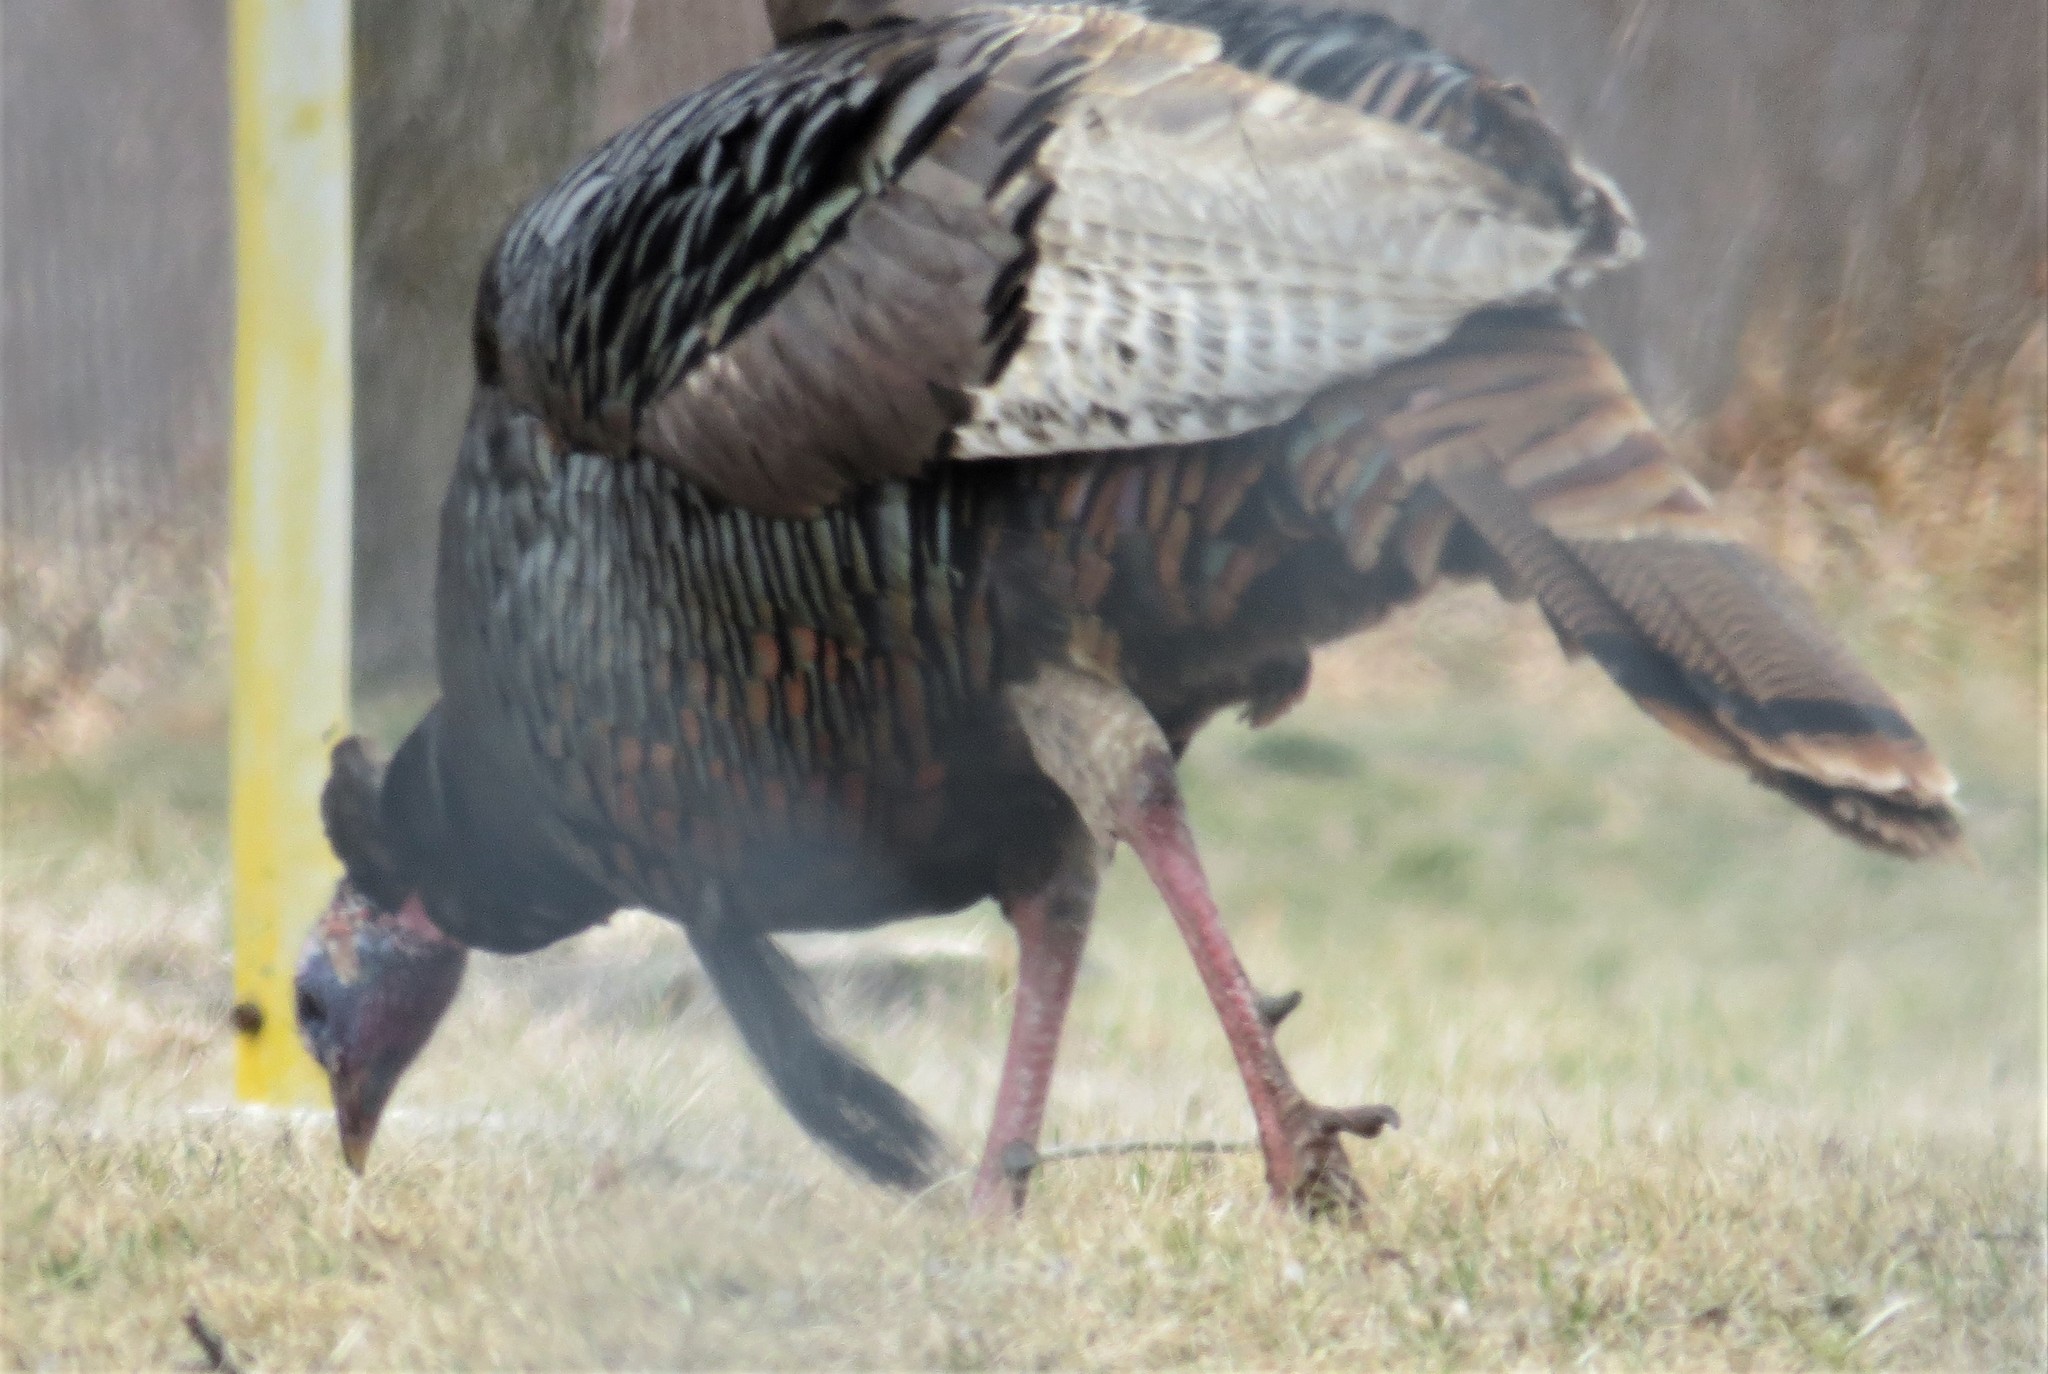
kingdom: Animalia
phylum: Chordata
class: Aves
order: Galliformes
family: Phasianidae
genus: Meleagris
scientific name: Meleagris gallopavo
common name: Wild turkey
